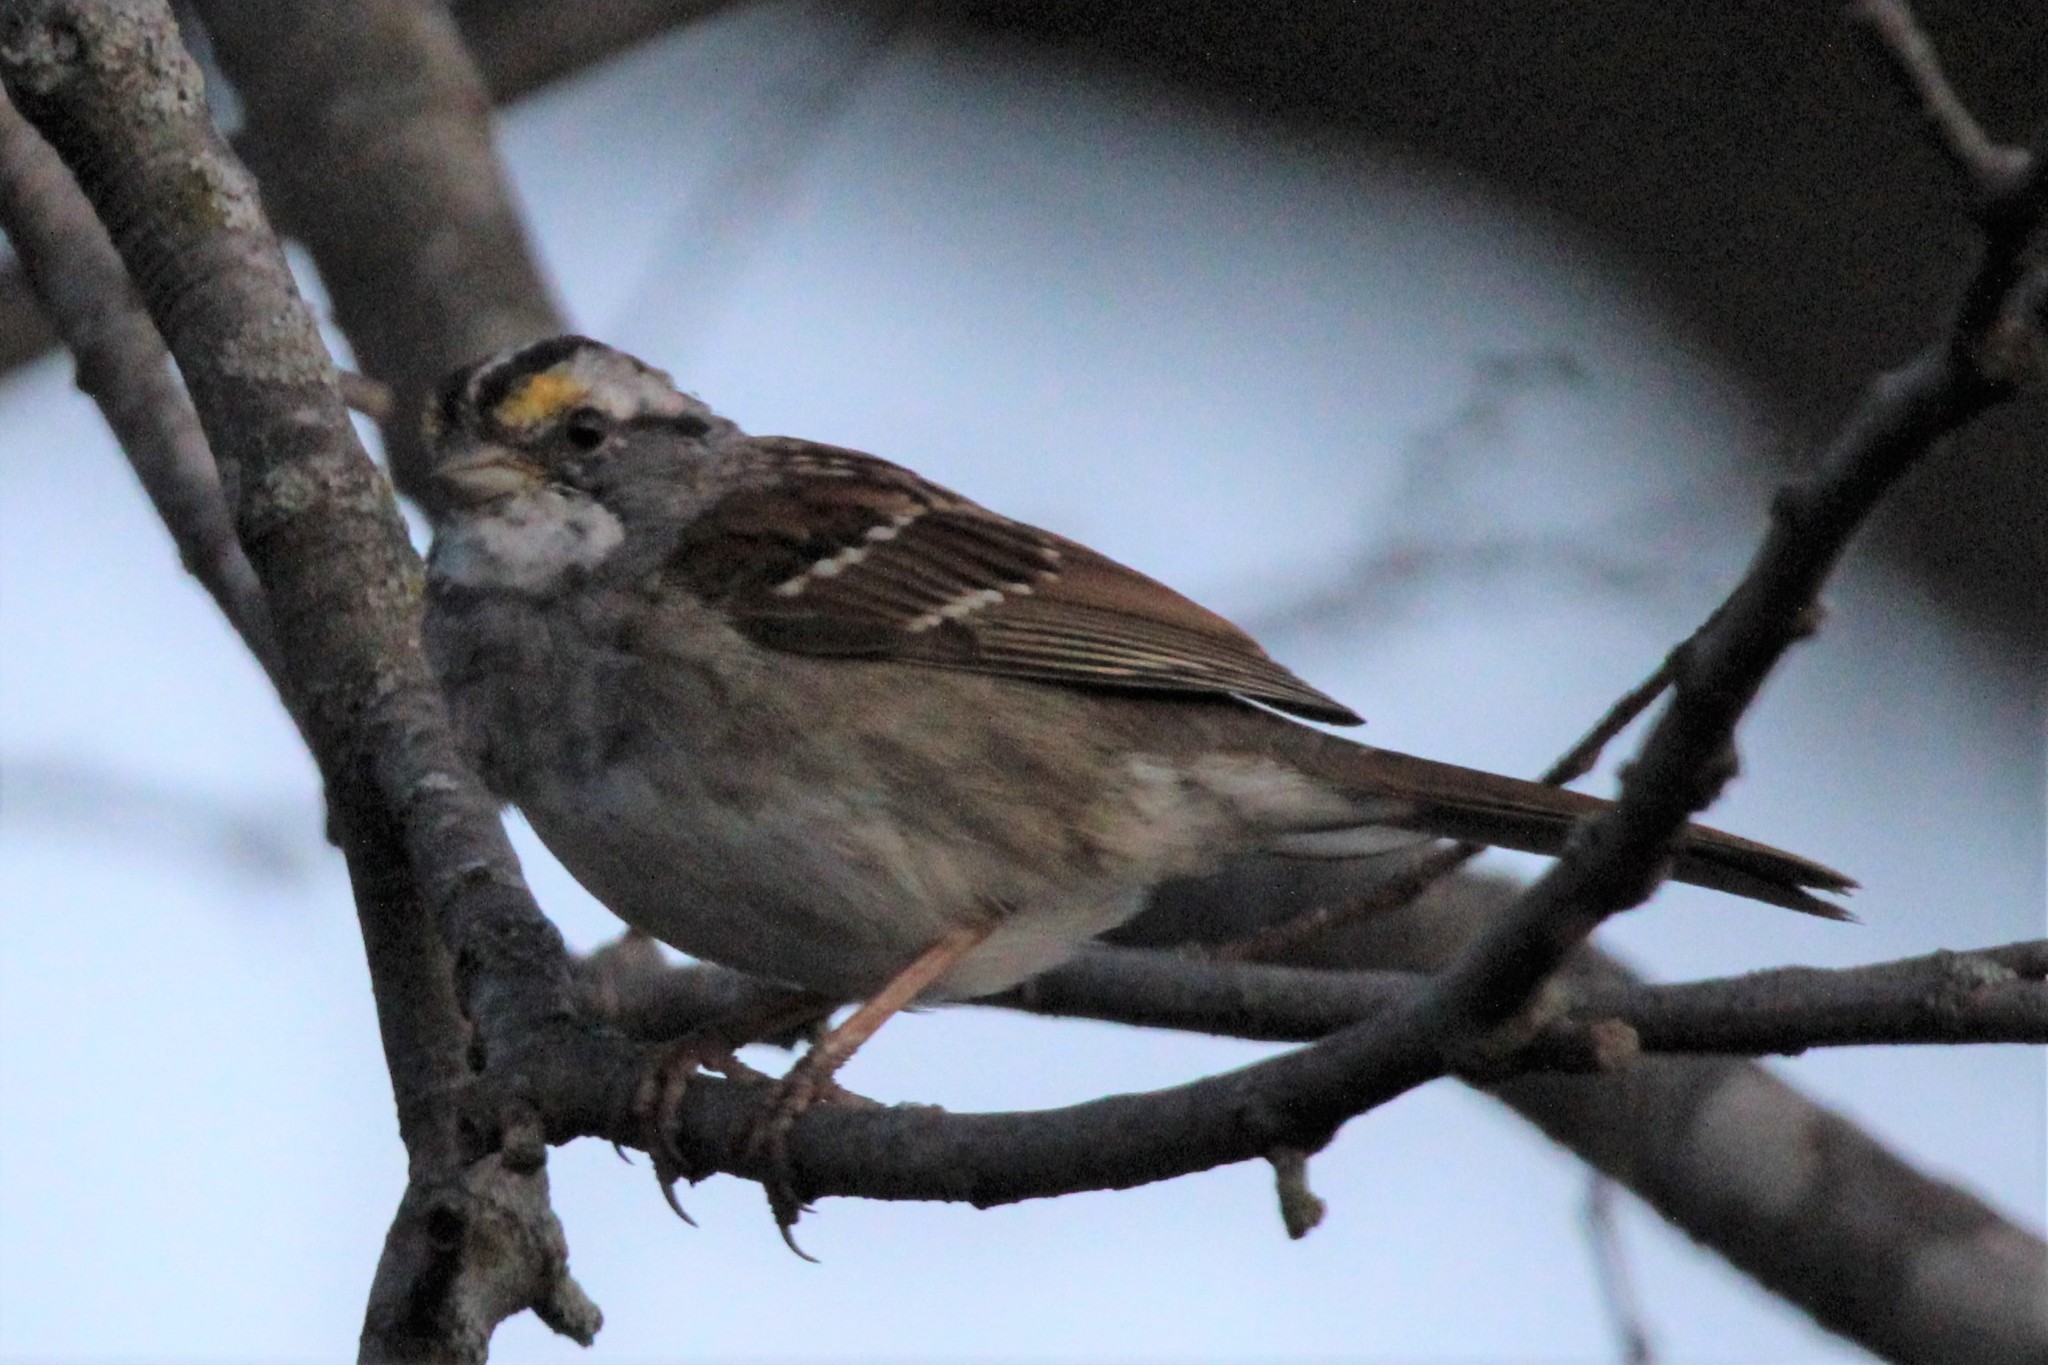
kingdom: Animalia
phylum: Chordata
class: Aves
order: Passeriformes
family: Passerellidae
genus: Zonotrichia
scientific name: Zonotrichia albicollis
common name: White-throated sparrow
